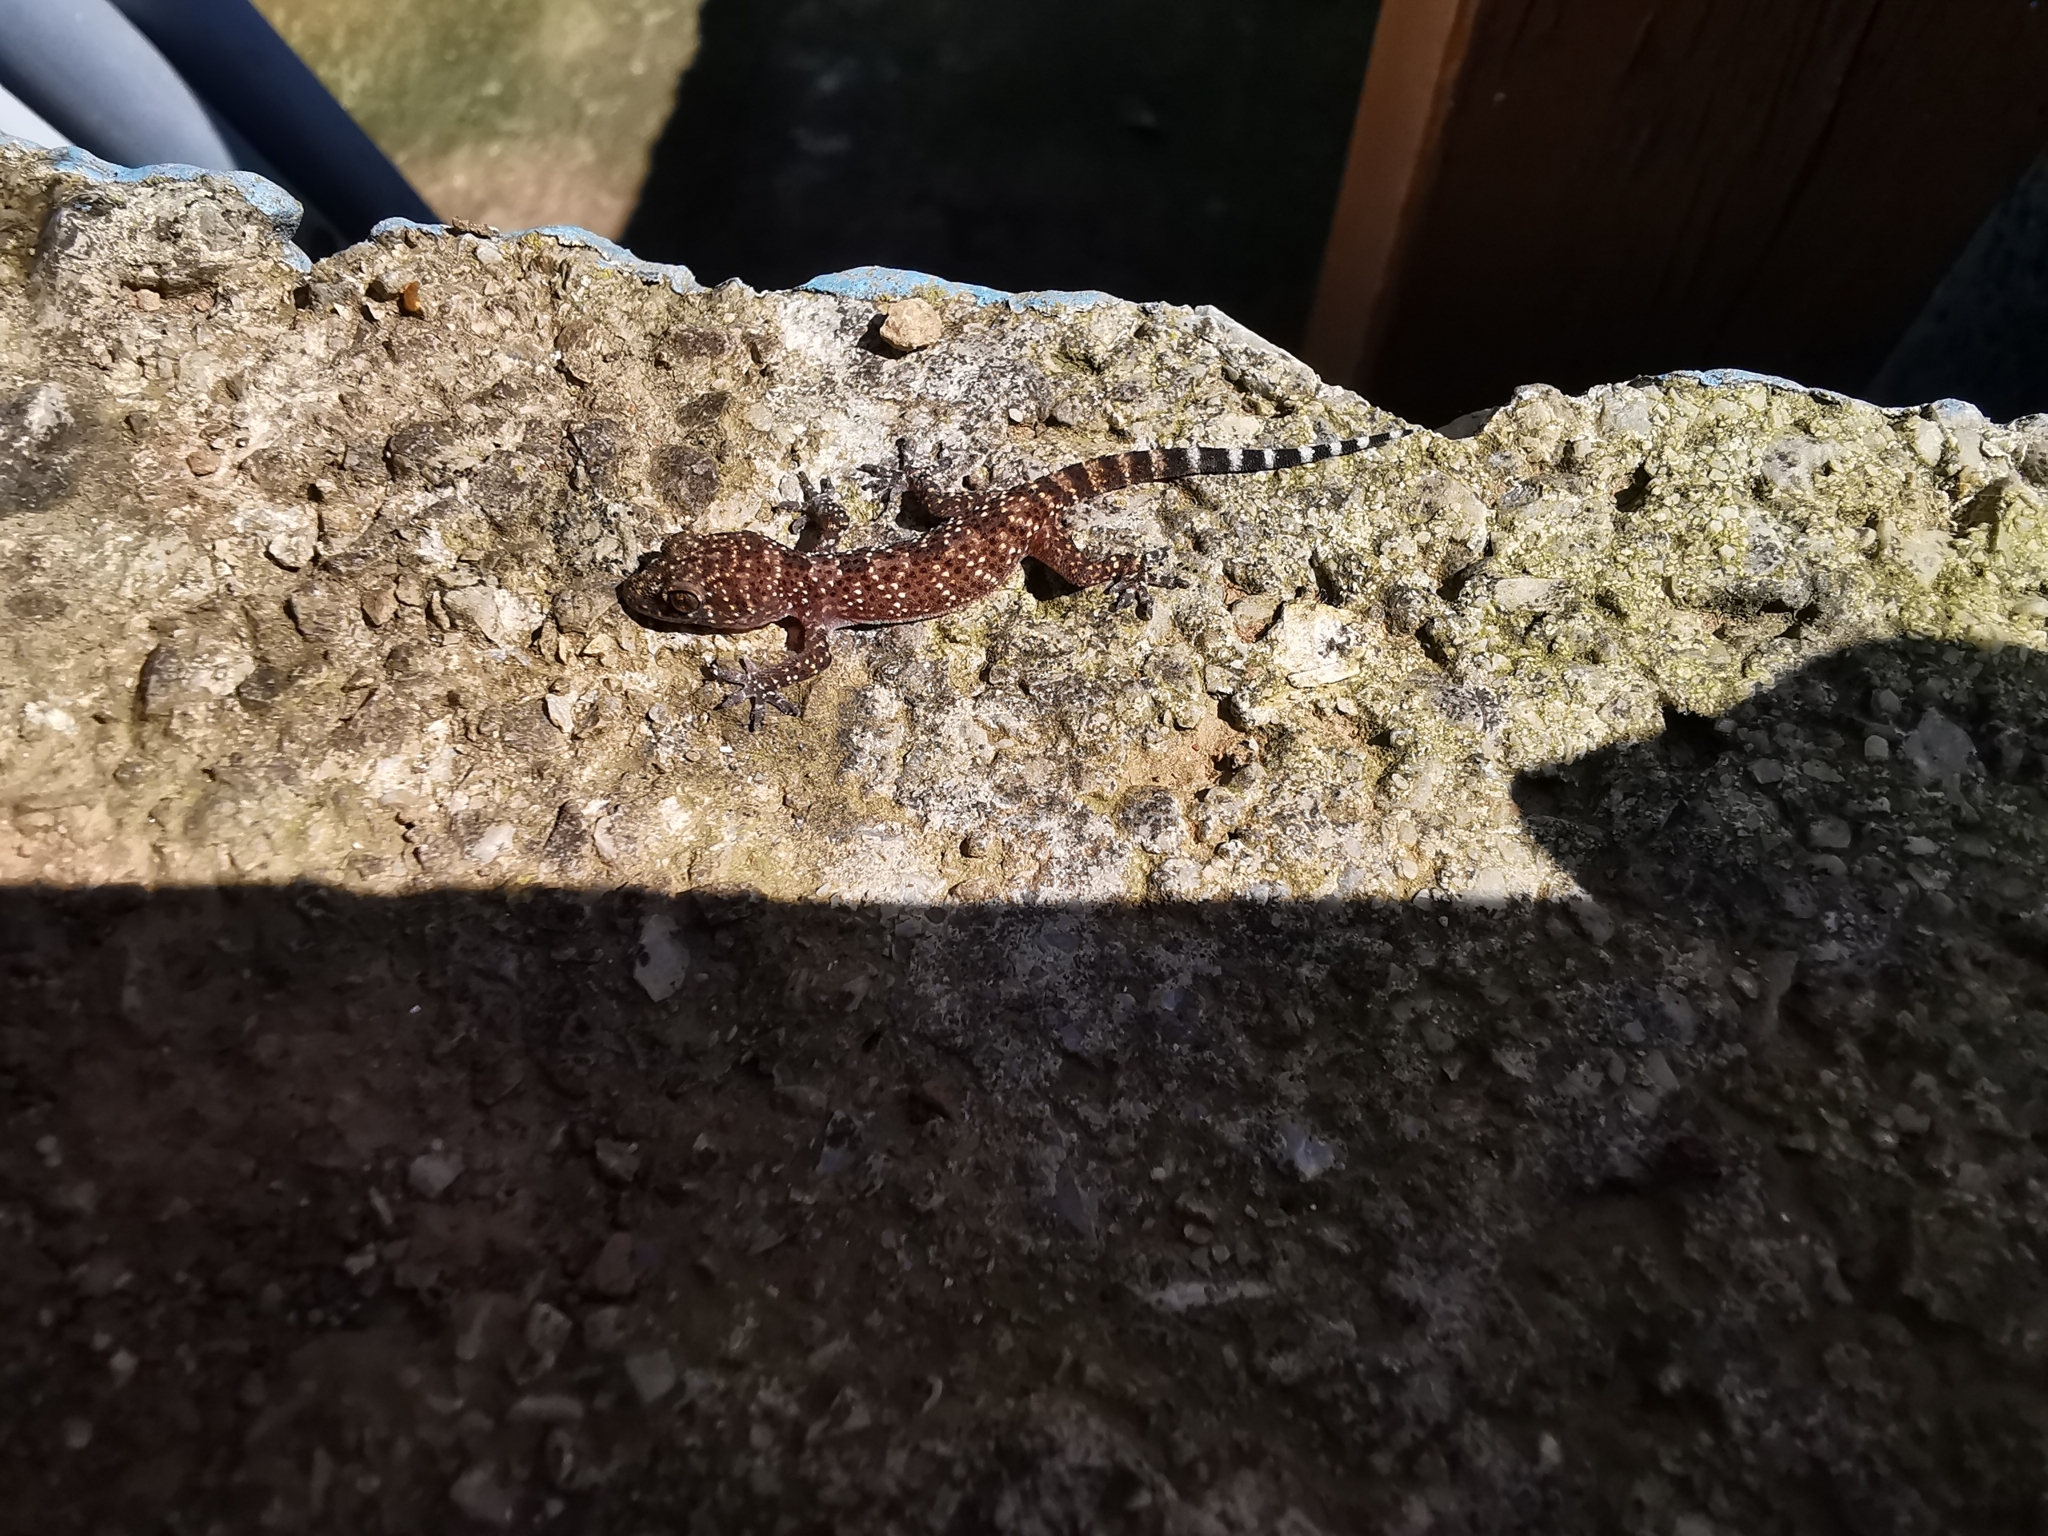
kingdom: Animalia
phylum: Chordata
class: Squamata
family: Gekkonidae
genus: Hemidactylus
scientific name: Hemidactylus turcicus
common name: Turkish gecko
